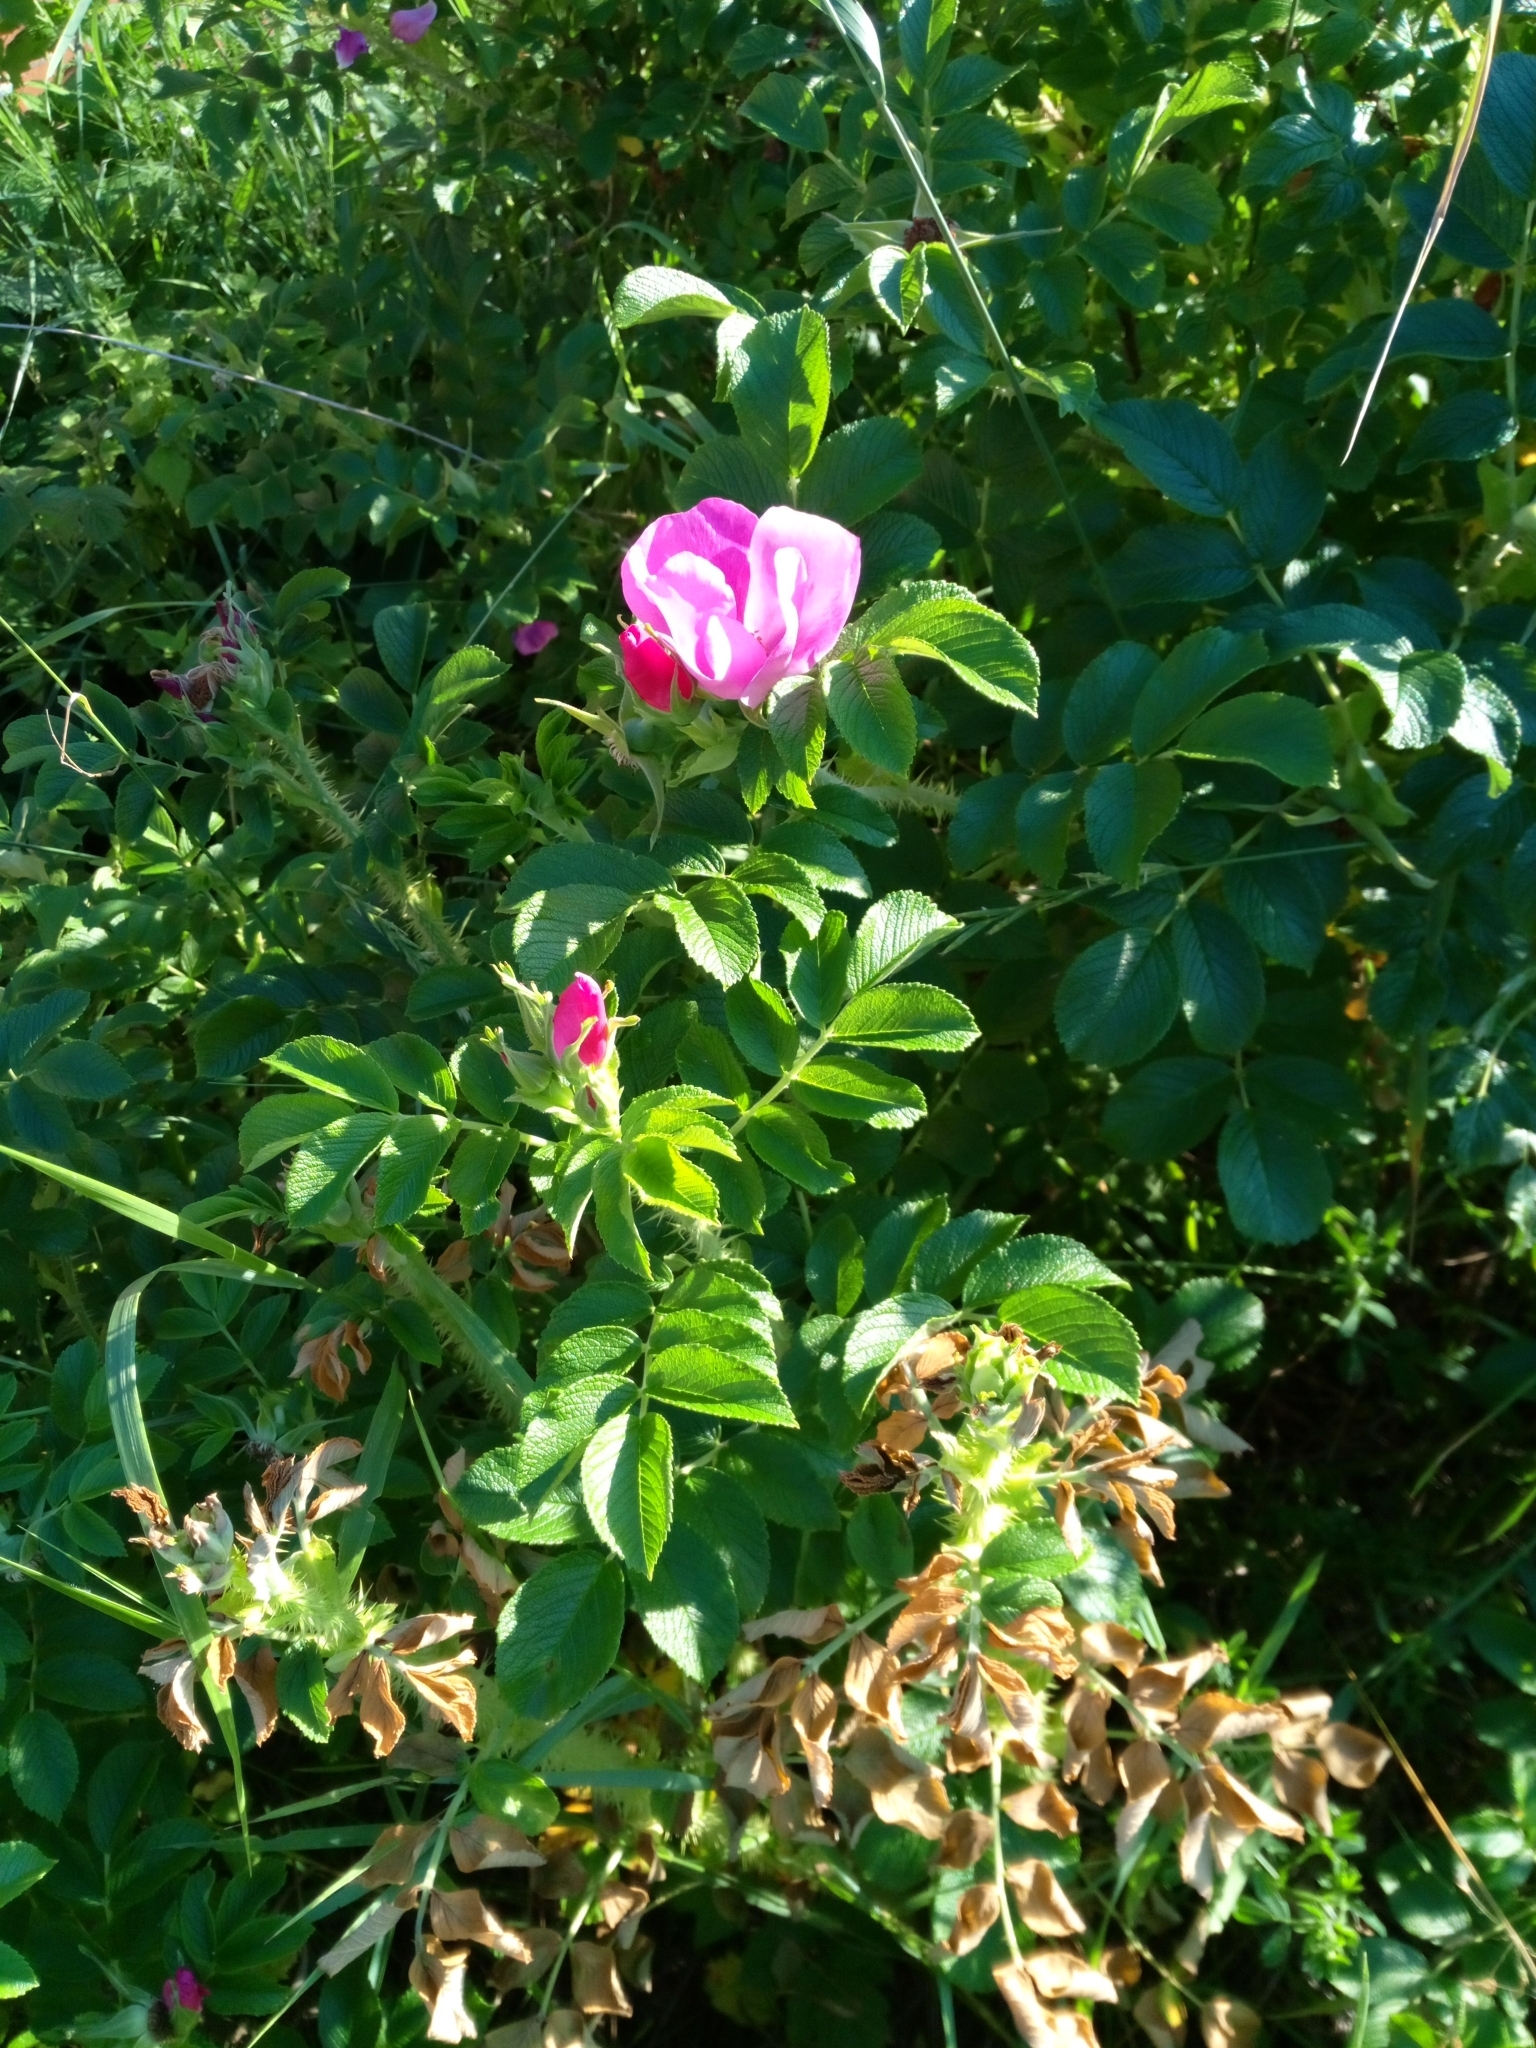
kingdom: Plantae
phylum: Tracheophyta
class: Magnoliopsida
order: Rosales
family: Rosaceae
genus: Rosa
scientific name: Rosa rugosa
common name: Japanese rose
